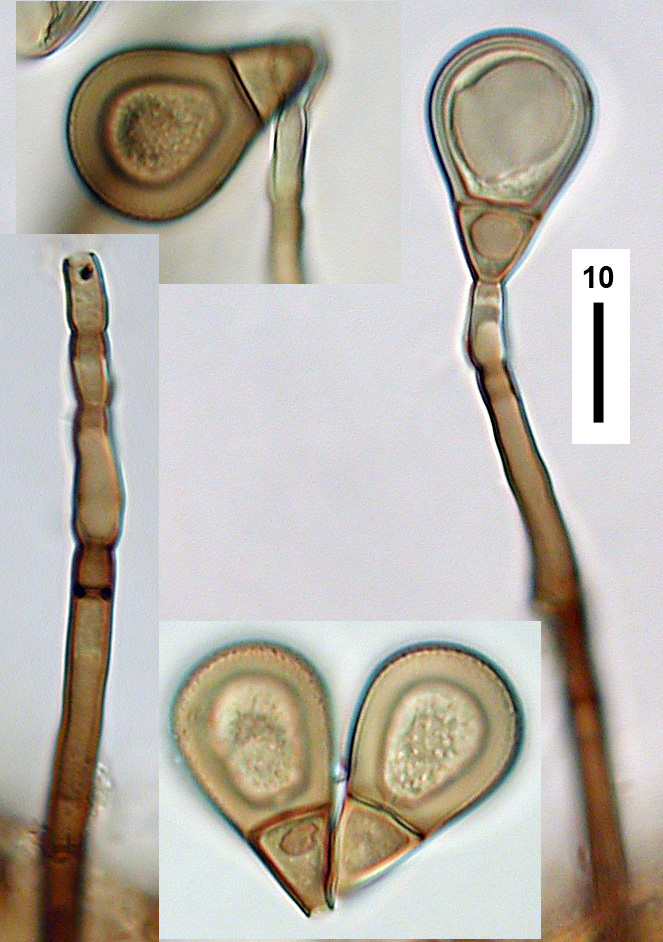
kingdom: Fungi
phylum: Ascomycota
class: Sordariomycetes
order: Sordariales
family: Helminthosphaeriaceae
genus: Endophragmiella
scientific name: Endophragmiella boewei
